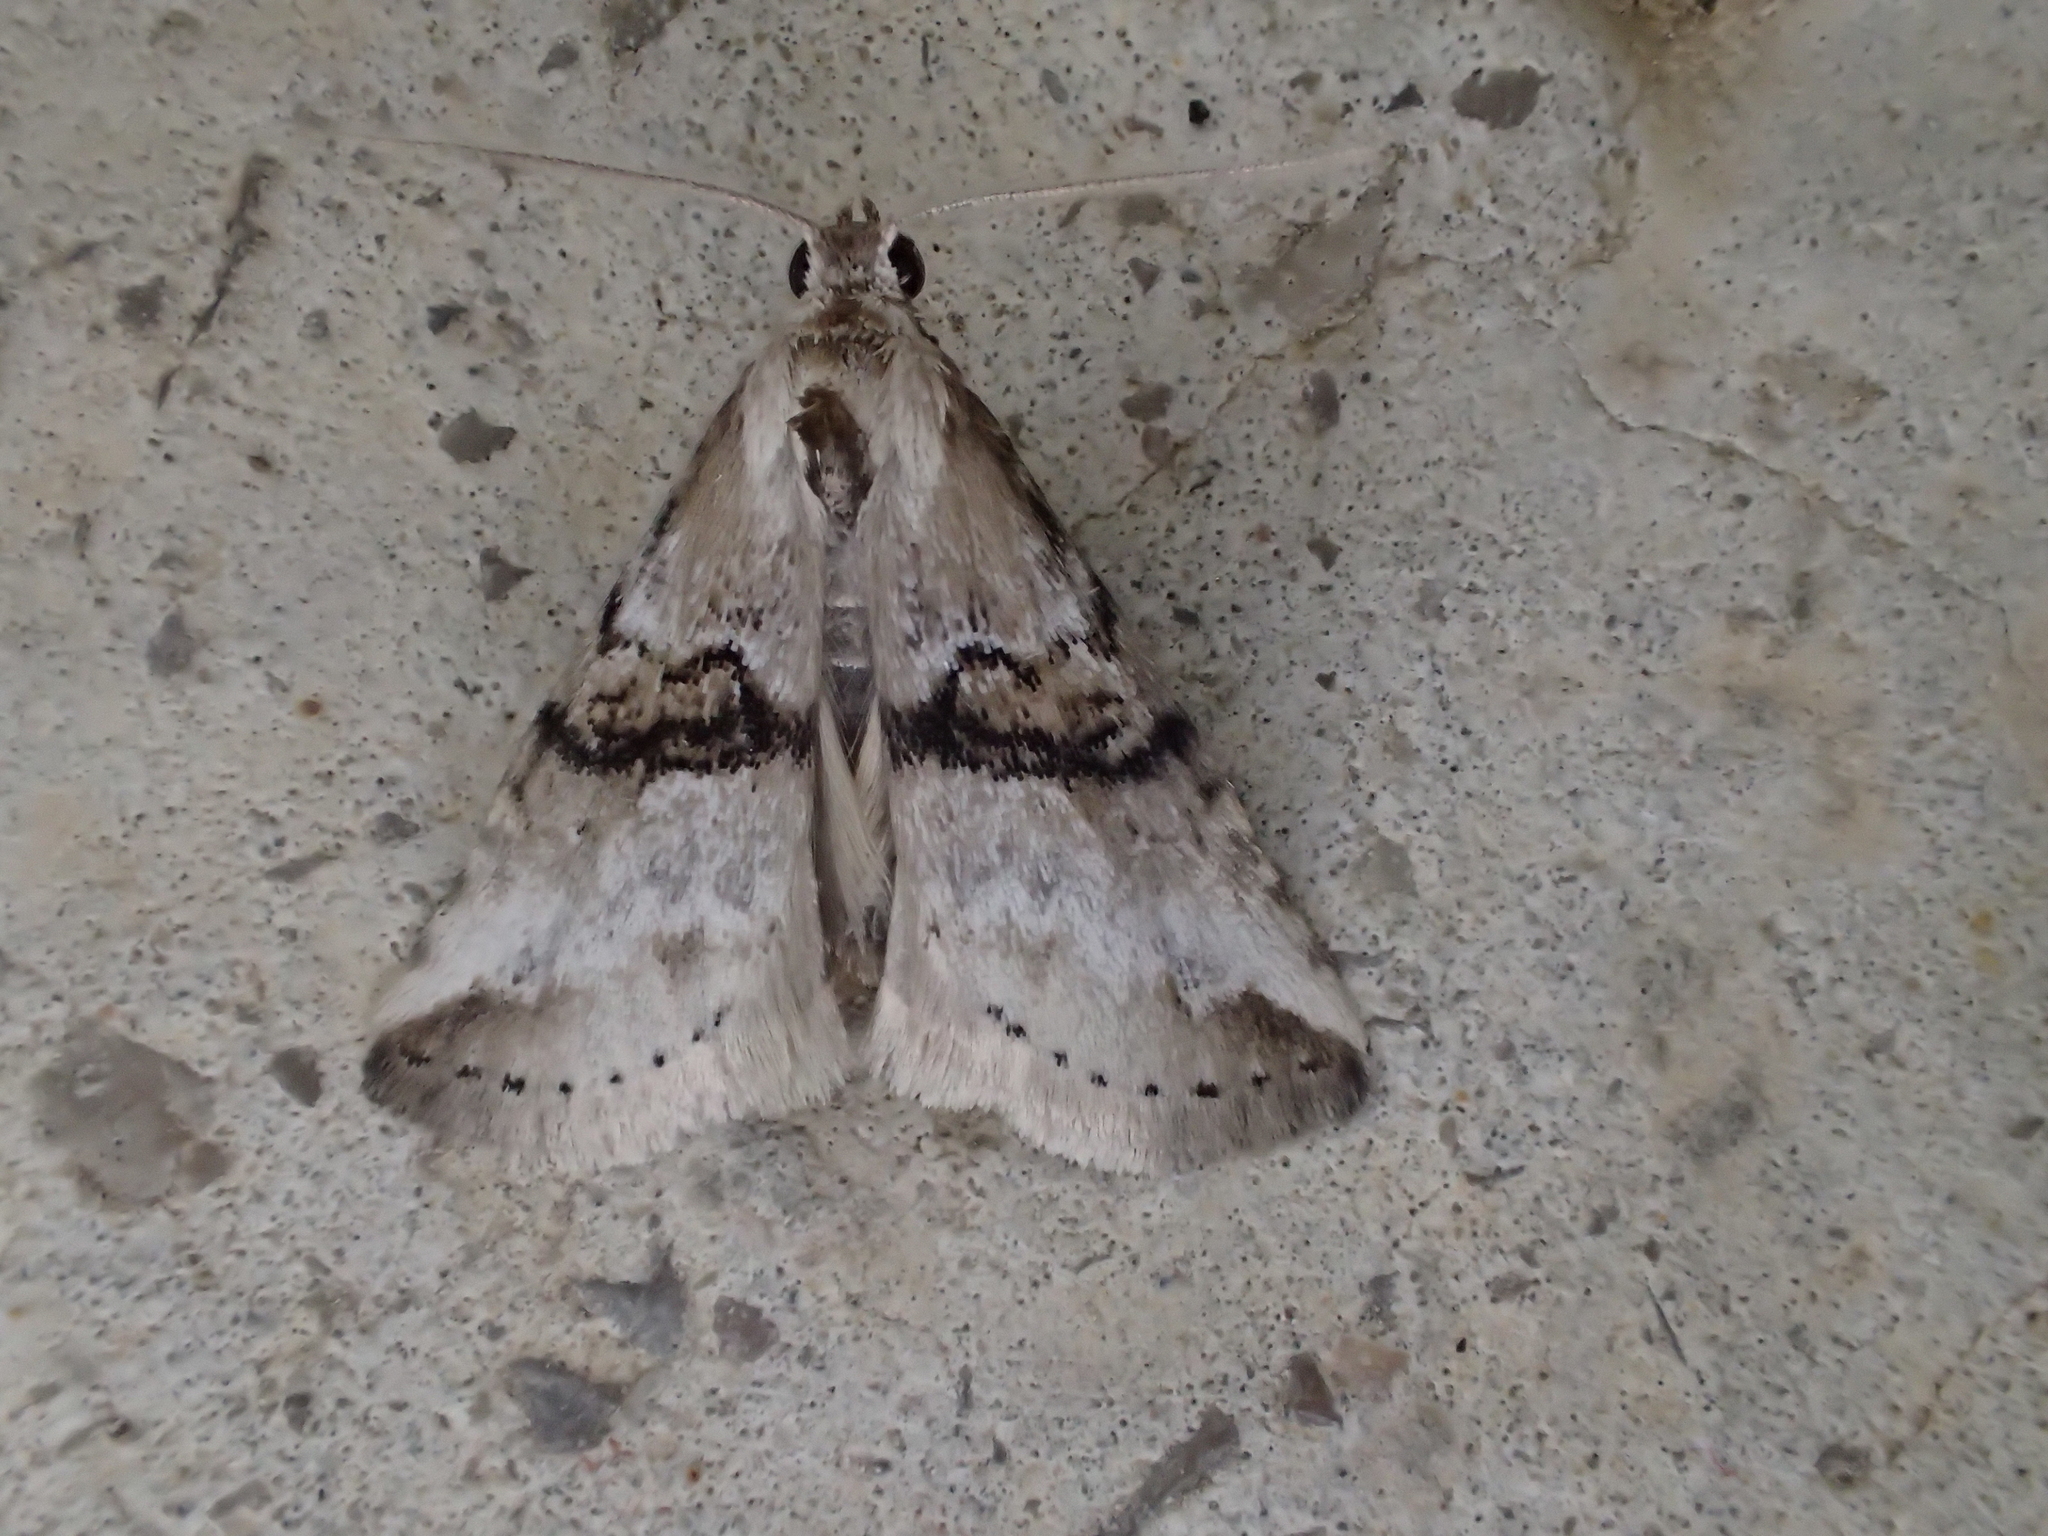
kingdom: Animalia
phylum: Arthropoda
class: Insecta
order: Lepidoptera
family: Erebidae
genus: Zebeeba
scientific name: Zebeeba falsalis
